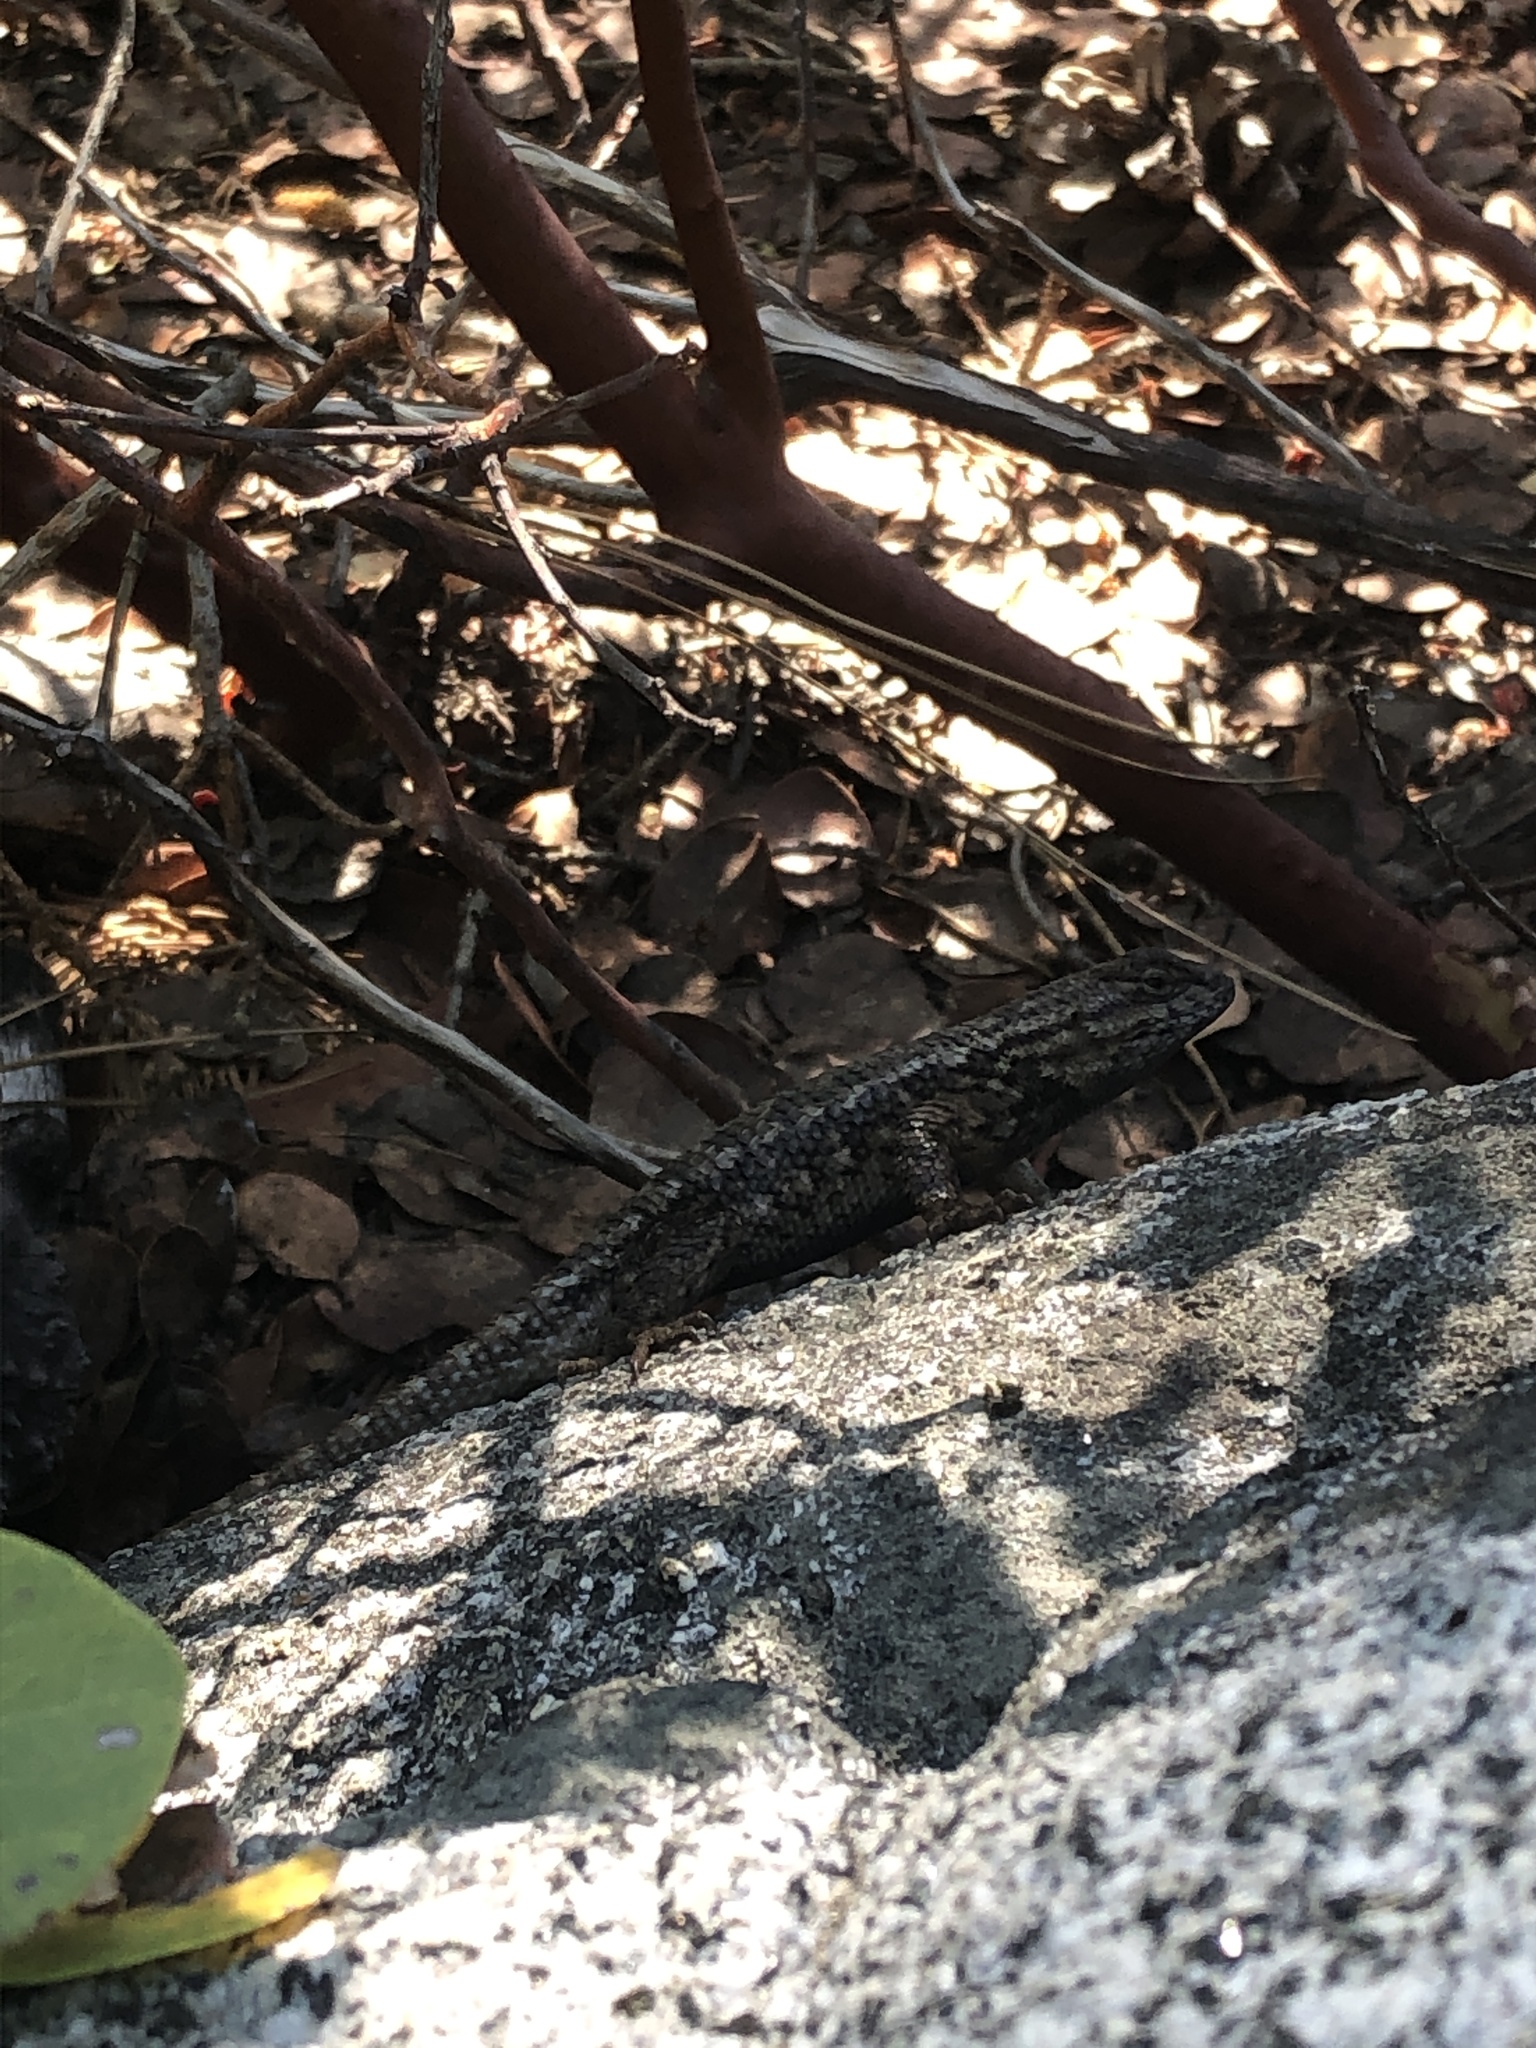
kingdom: Animalia
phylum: Chordata
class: Squamata
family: Phrynosomatidae
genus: Sceloporus
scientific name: Sceloporus occidentalis
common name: Western fence lizard
